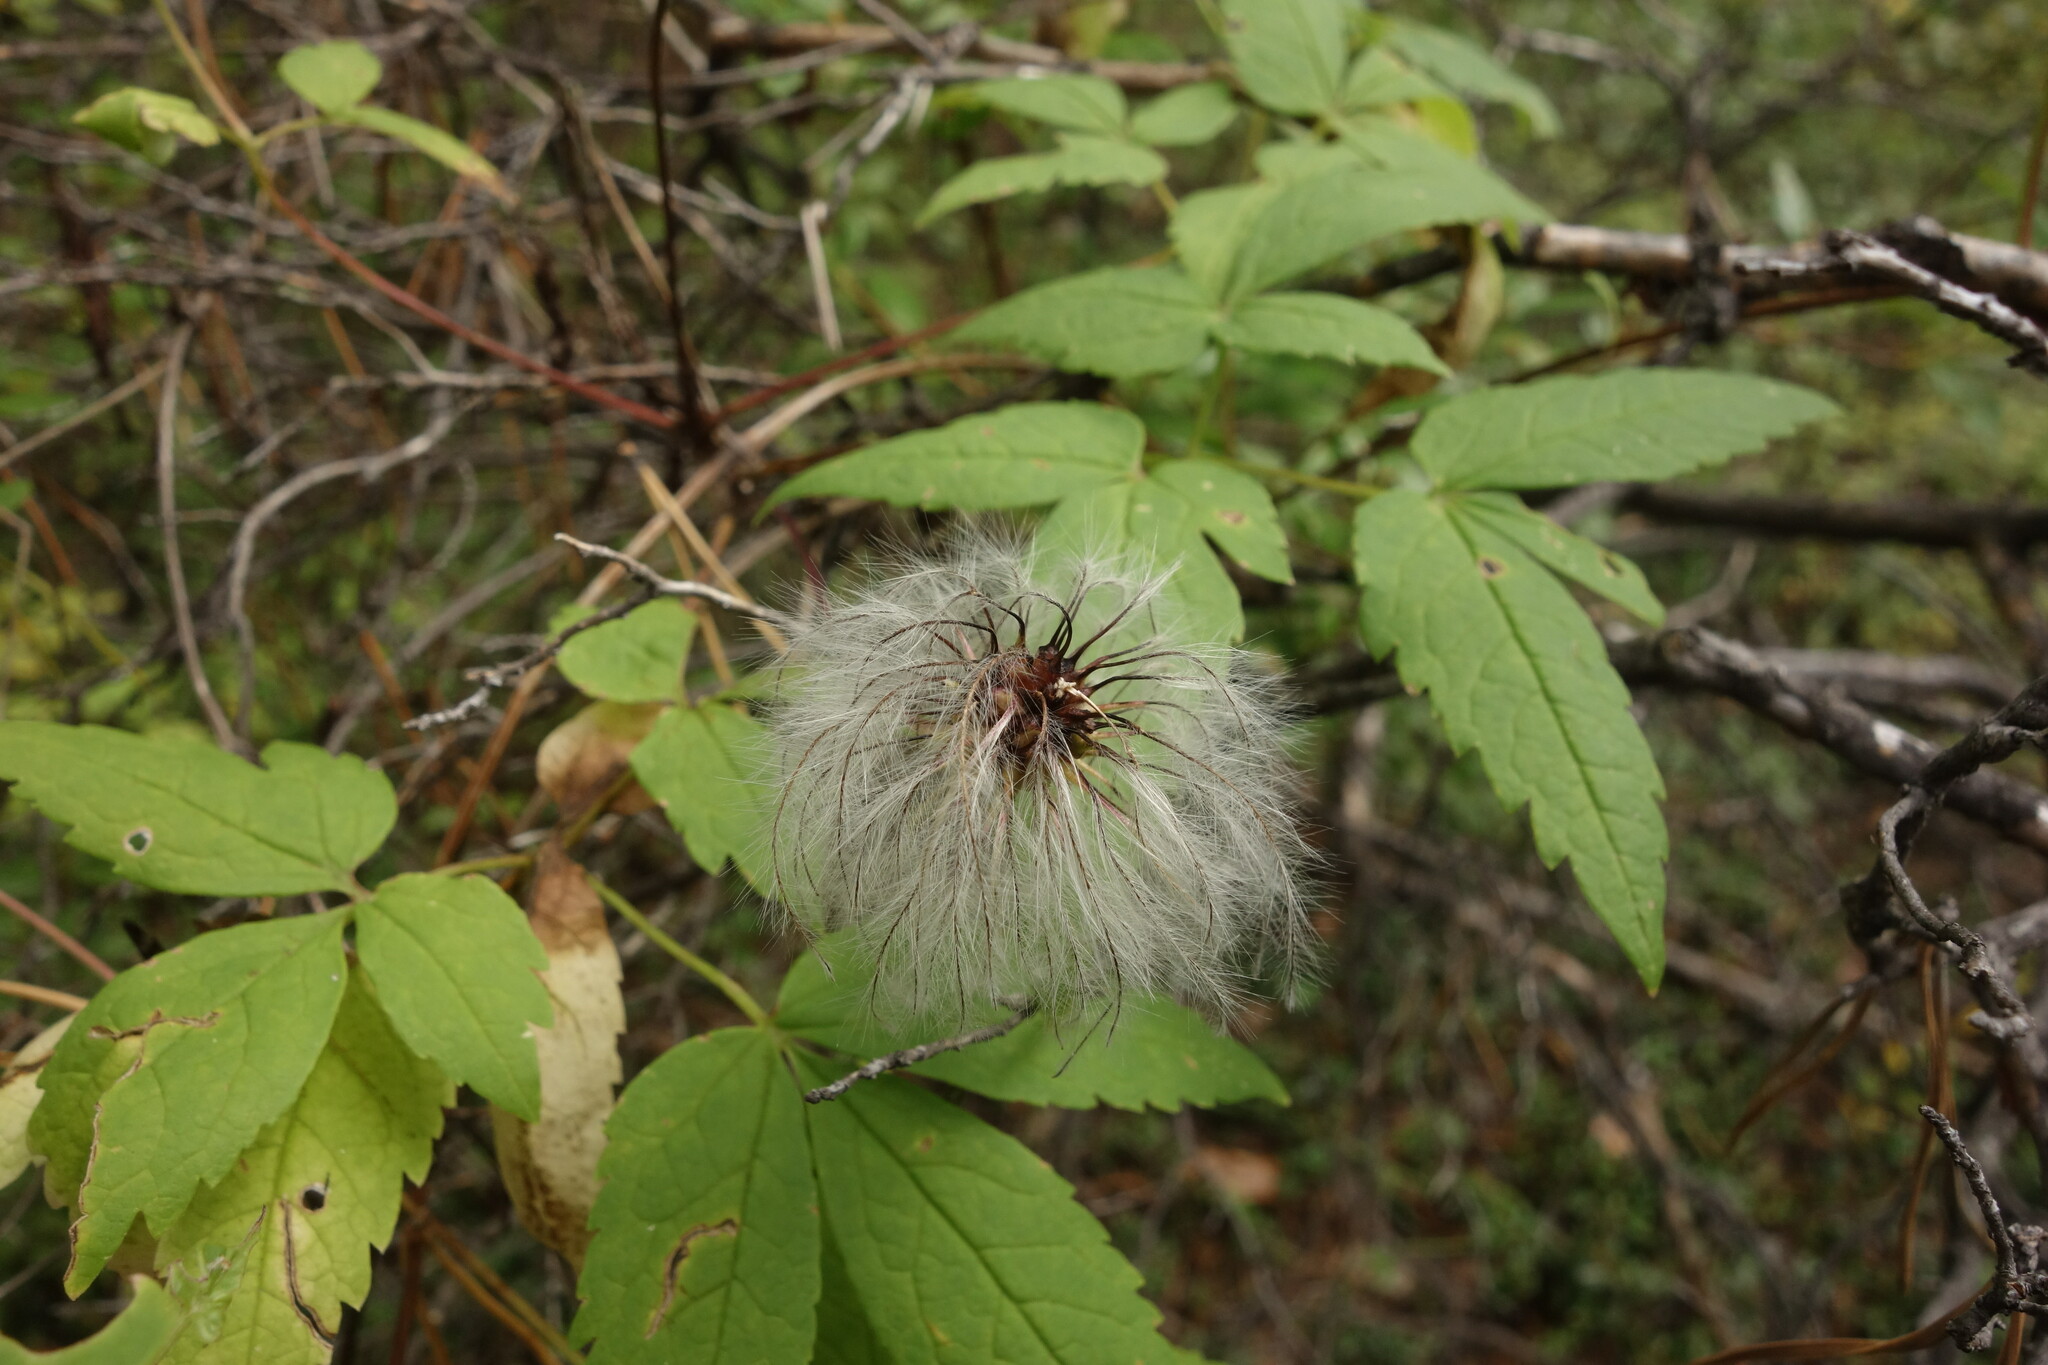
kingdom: Plantae
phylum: Tracheophyta
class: Magnoliopsida
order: Ranunculales
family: Ranunculaceae
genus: Clematis
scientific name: Clematis sibirica
